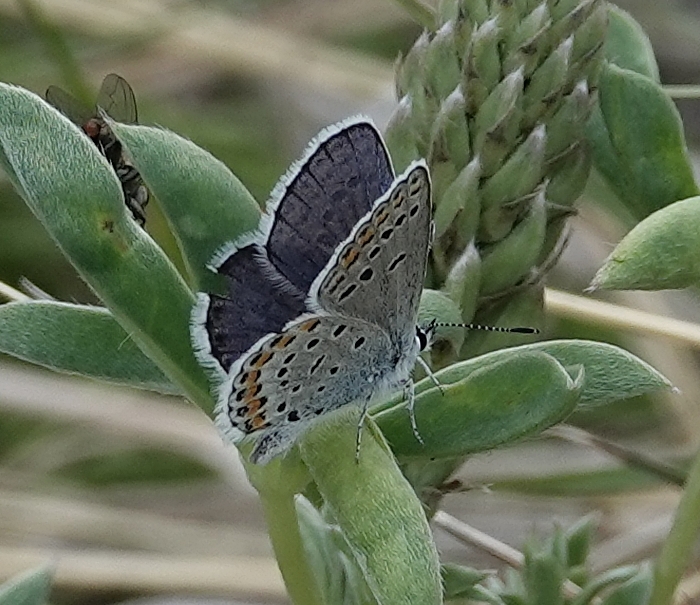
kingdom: Animalia
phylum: Arthropoda
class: Insecta
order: Lepidoptera
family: Lycaenidae
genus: Lycaeides
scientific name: Lycaeides melissa
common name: Melissa blue
